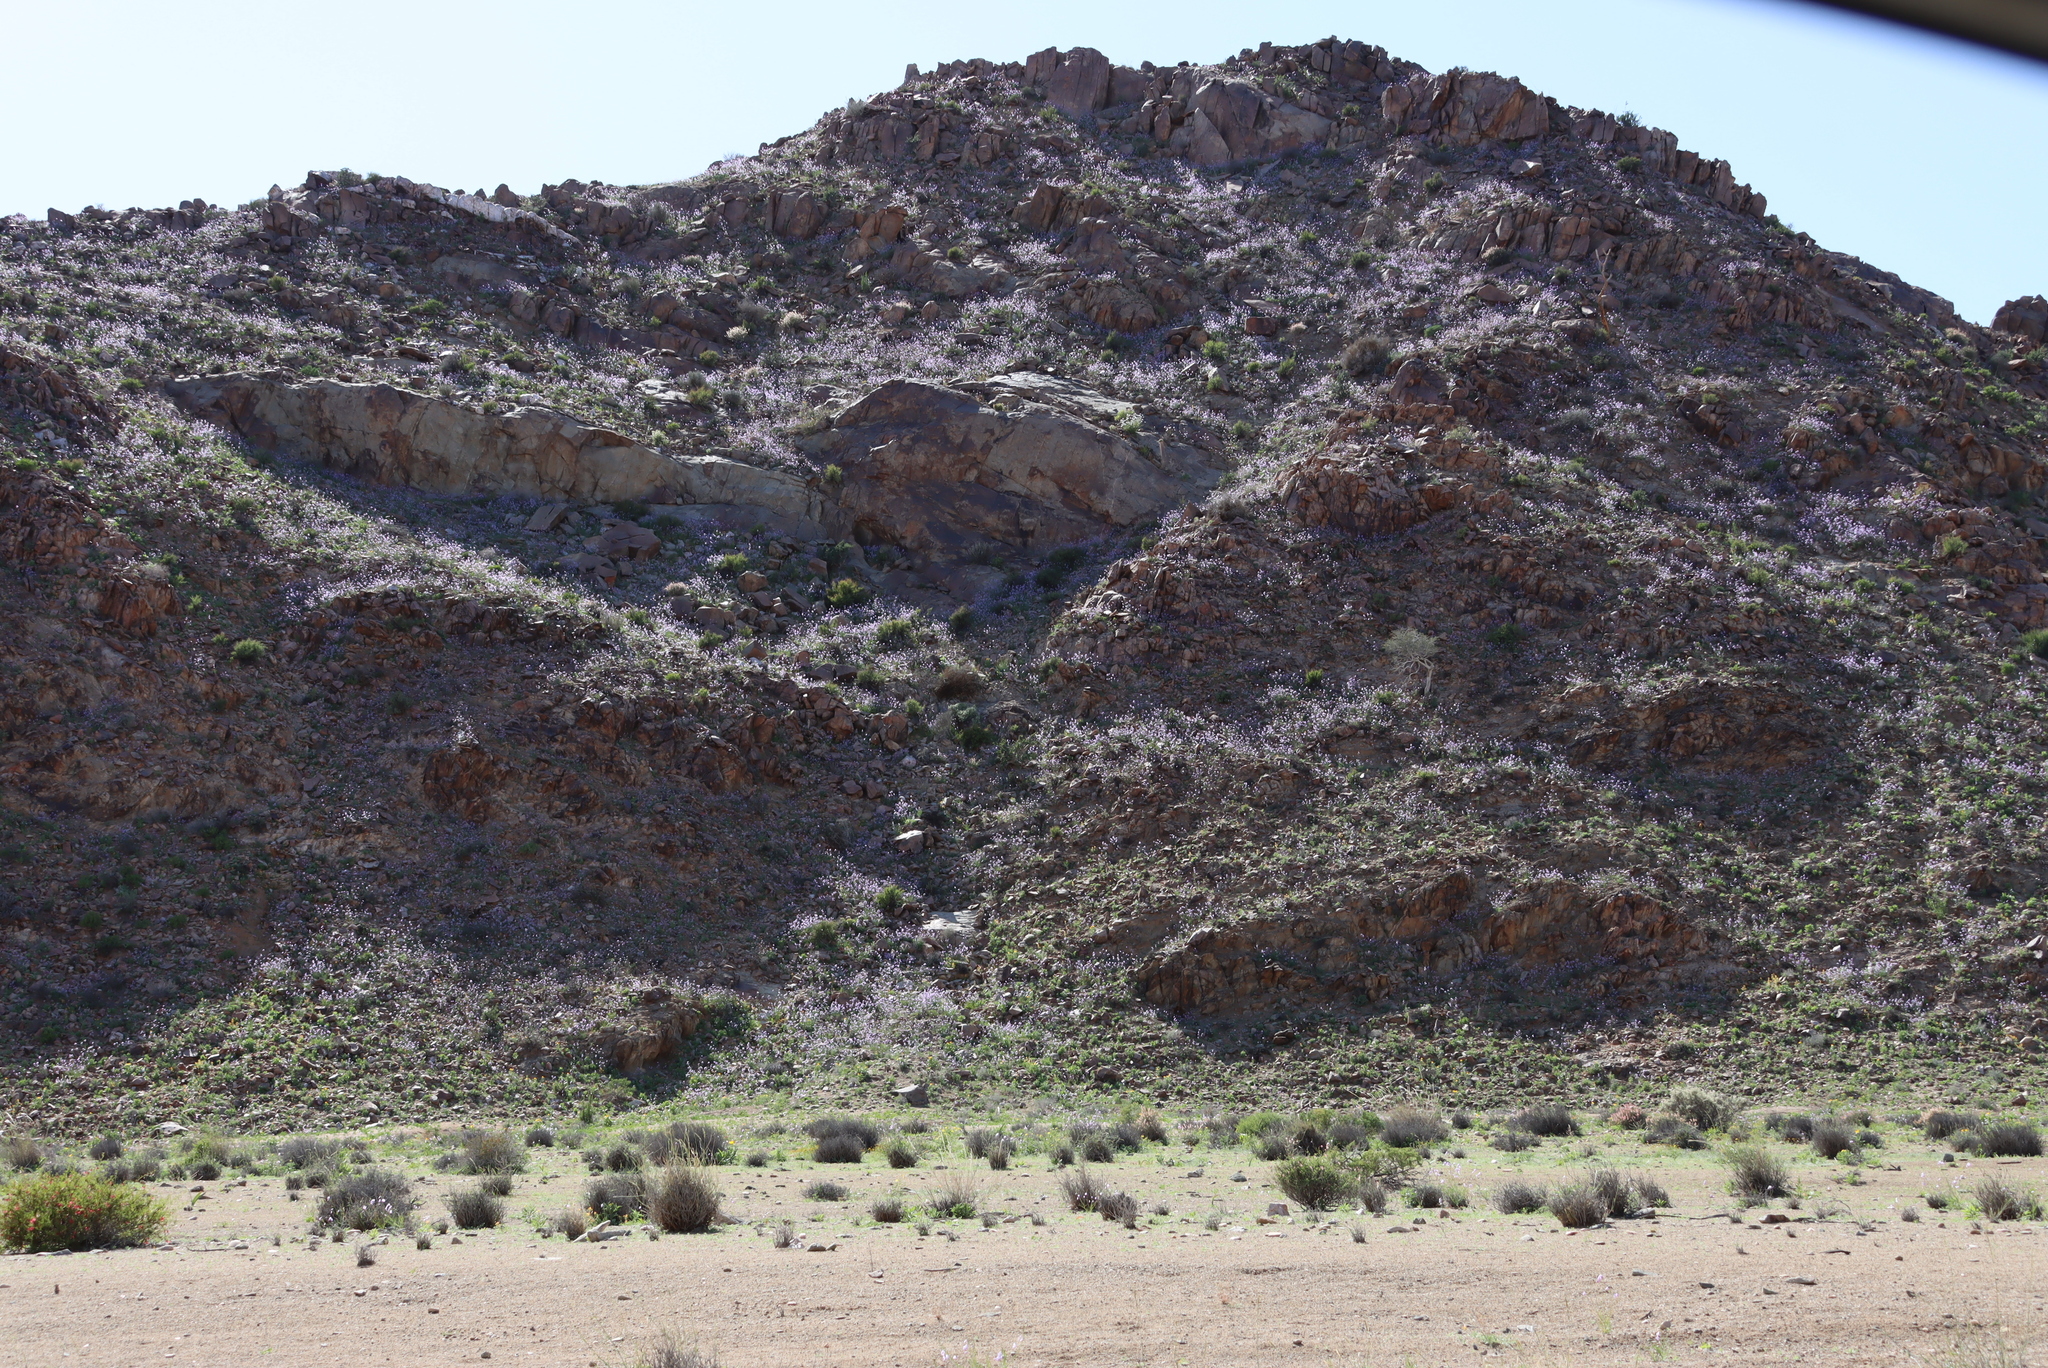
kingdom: Plantae
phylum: Tracheophyta
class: Magnoliopsida
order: Brassicales
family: Brassicaceae
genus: Heliophila
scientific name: Heliophila trifurca
